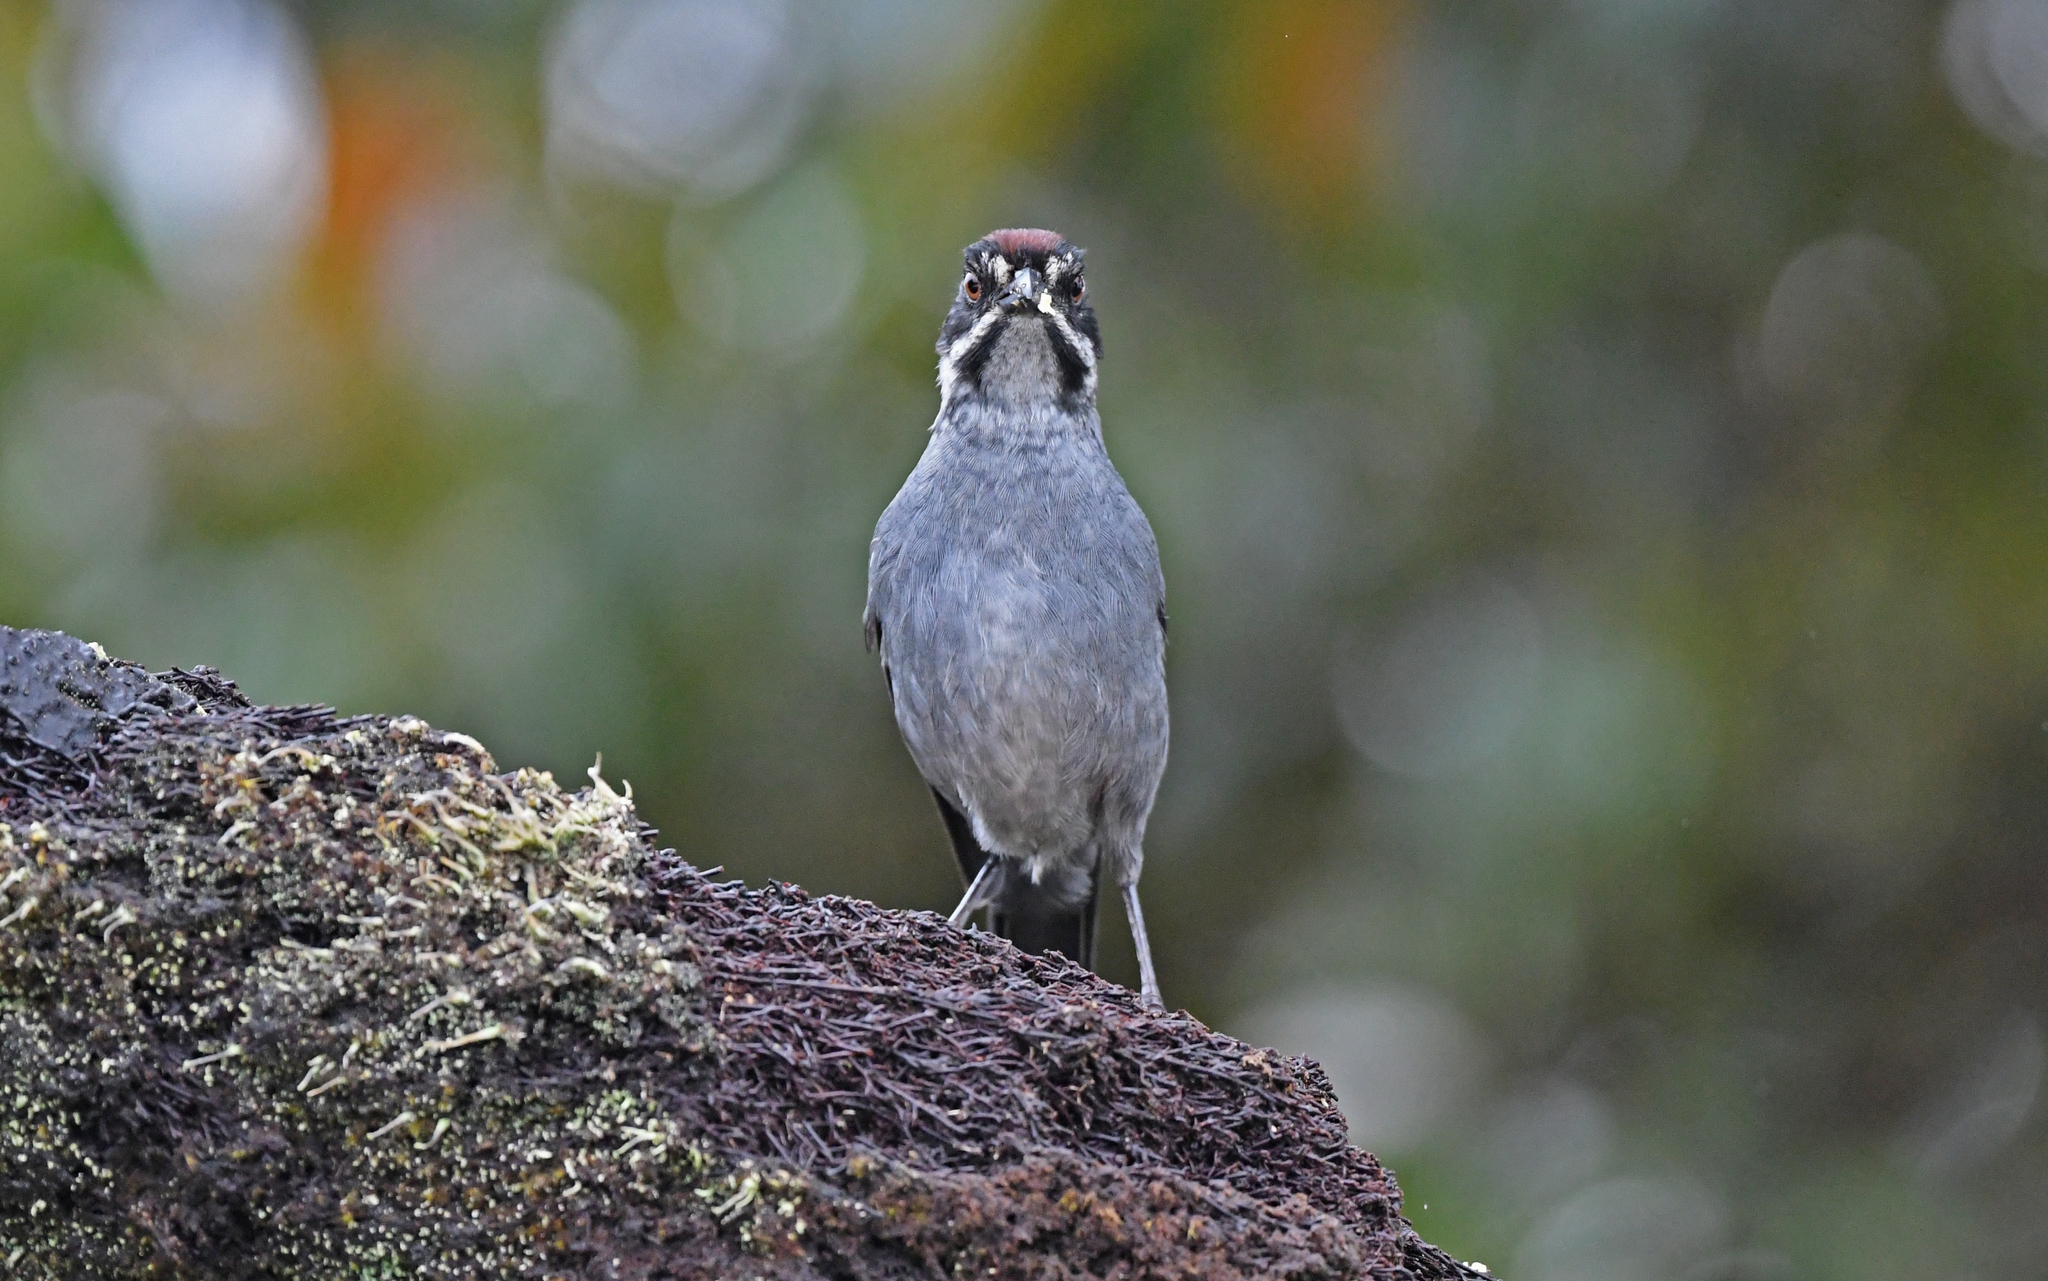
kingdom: Animalia
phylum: Chordata
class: Aves
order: Passeriformes
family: Passerellidae
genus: Atlapetes
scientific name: Atlapetes schistaceus
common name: Slaty brushfinch
